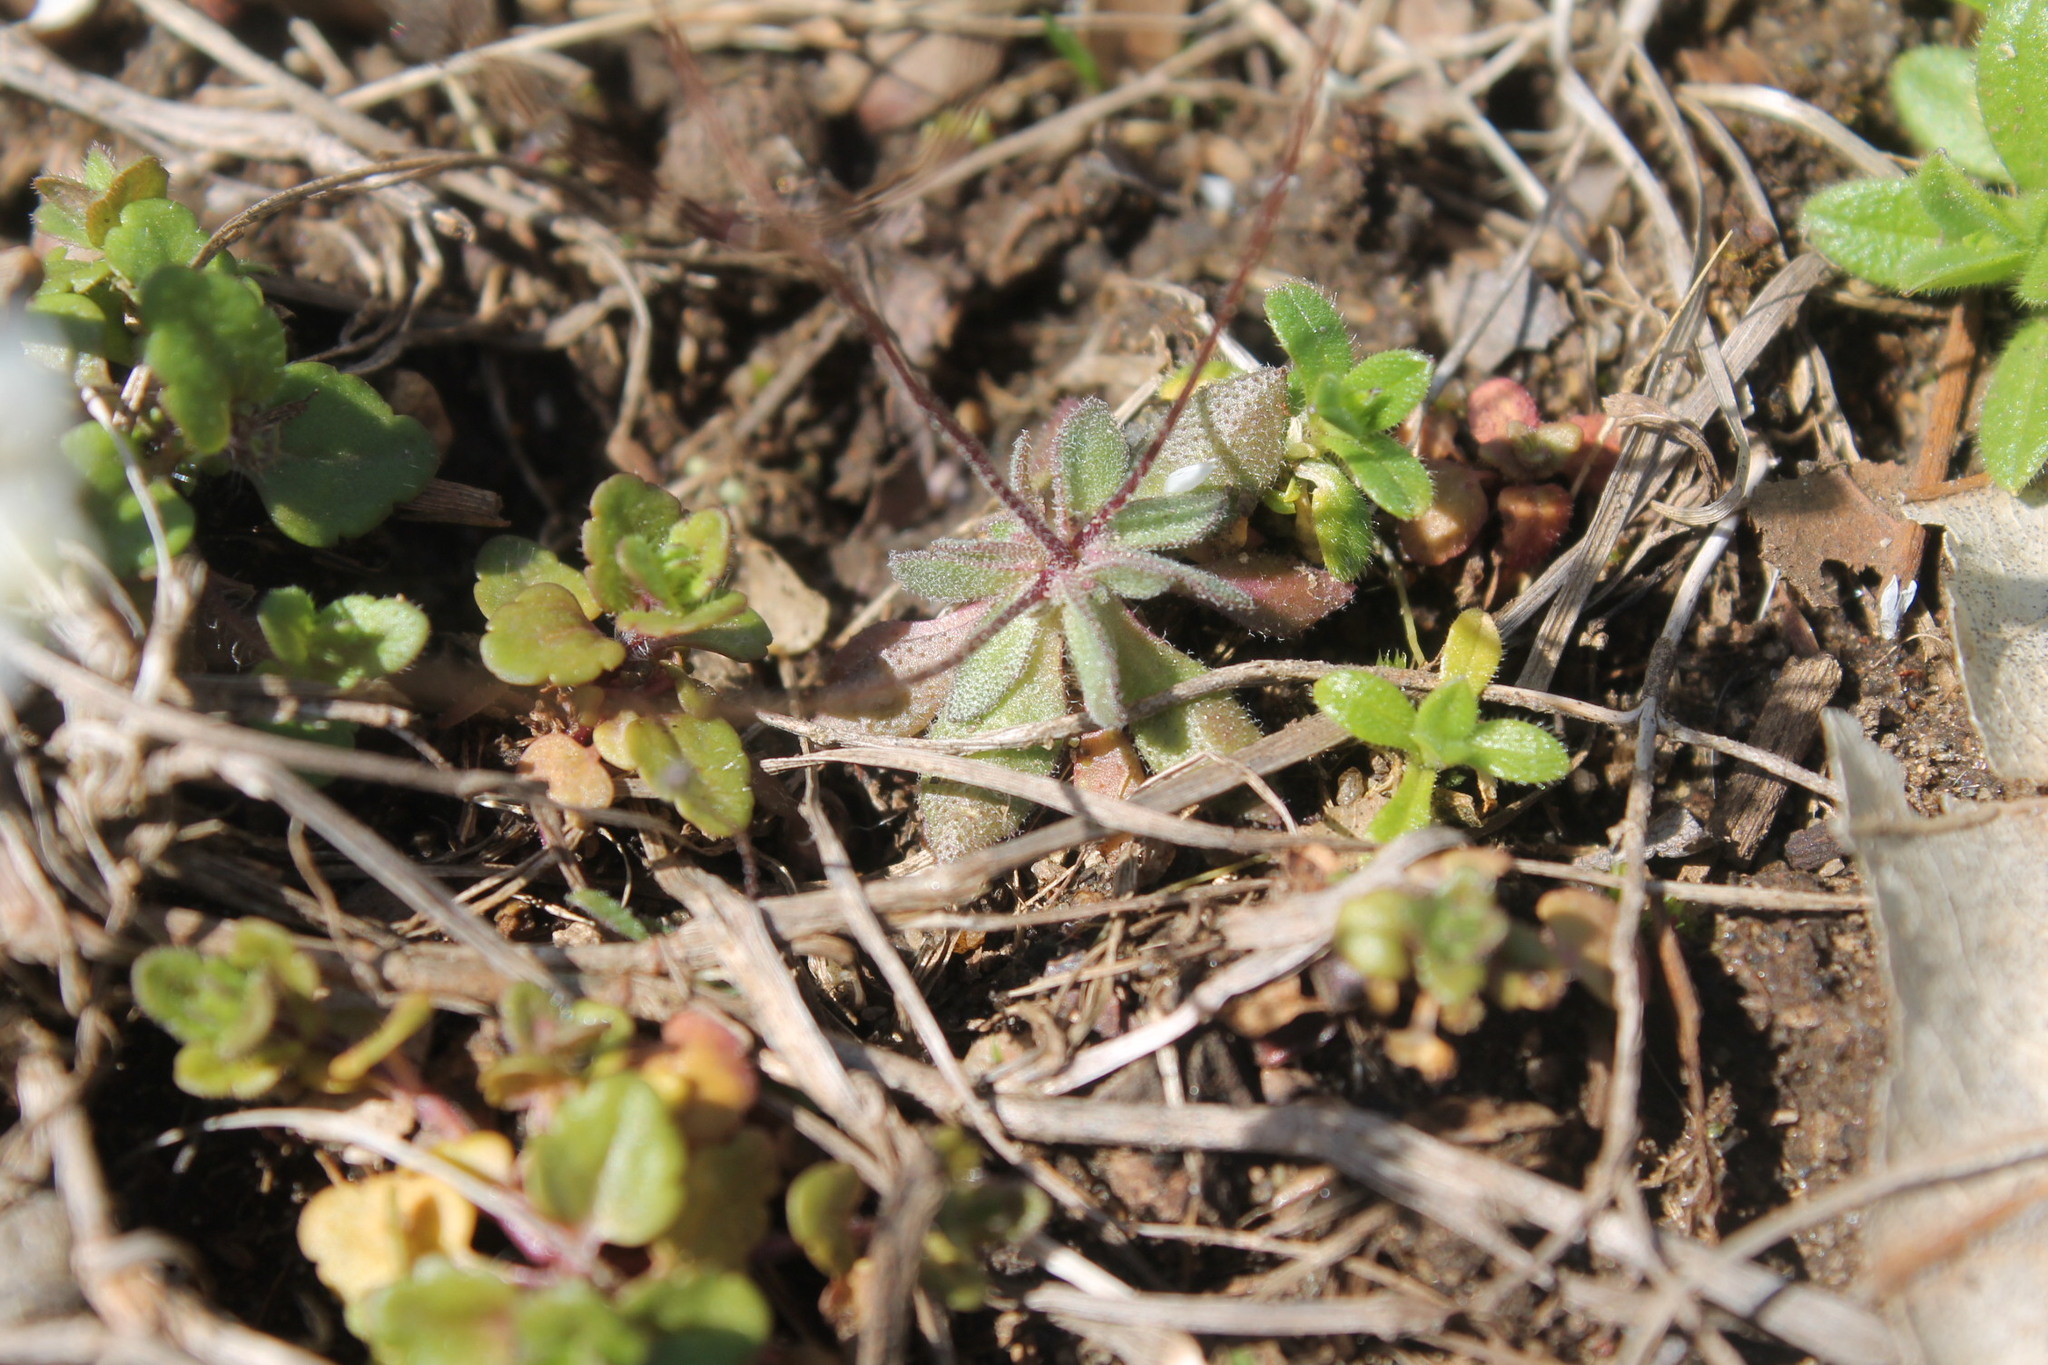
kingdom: Plantae
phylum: Tracheophyta
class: Magnoliopsida
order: Brassicales
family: Brassicaceae
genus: Draba
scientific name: Draba verna
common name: Spring draba
